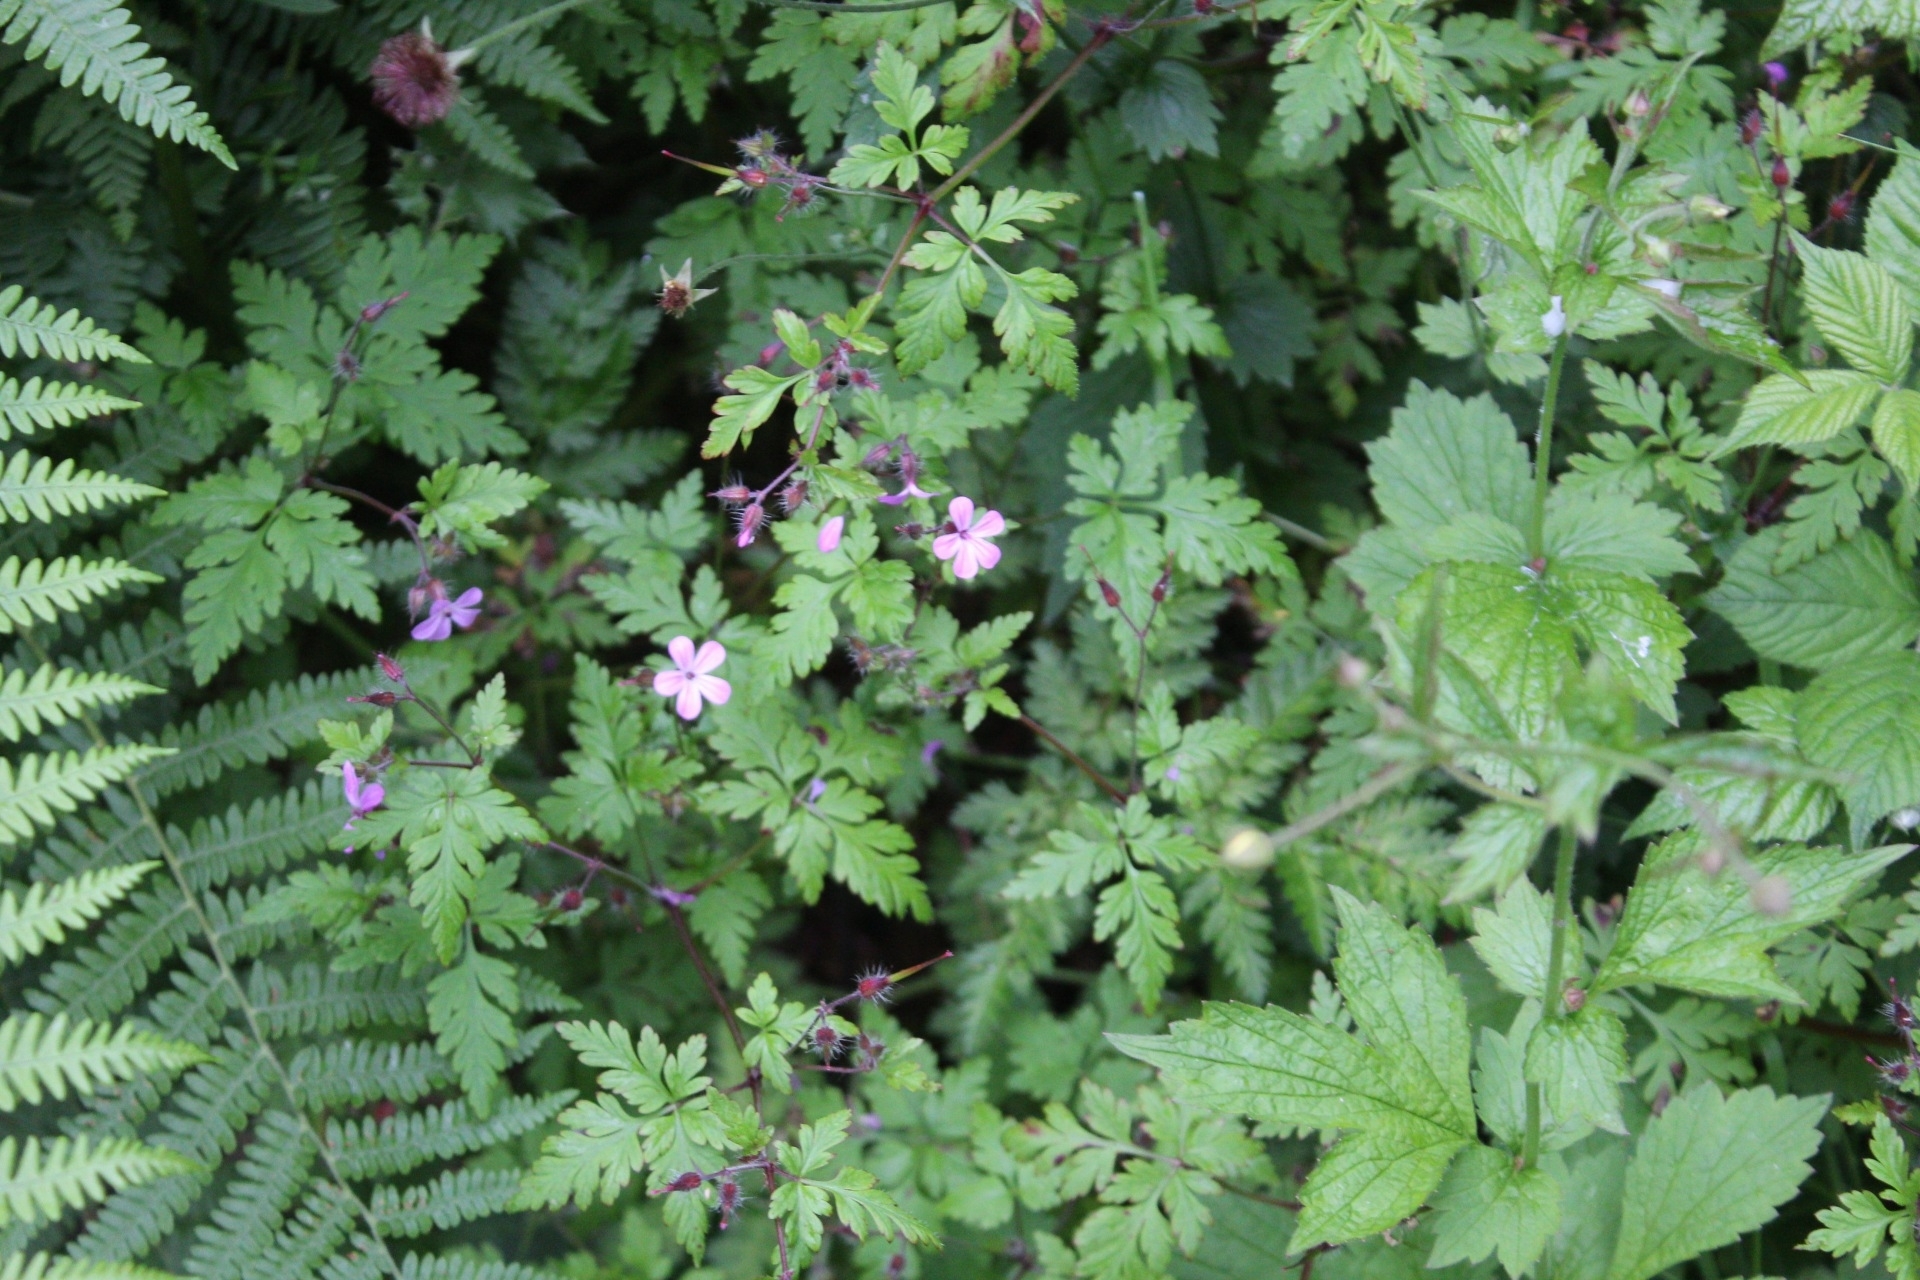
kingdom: Plantae
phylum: Tracheophyta
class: Magnoliopsida
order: Geraniales
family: Geraniaceae
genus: Geranium
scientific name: Geranium robertianum
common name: Herb-robert
